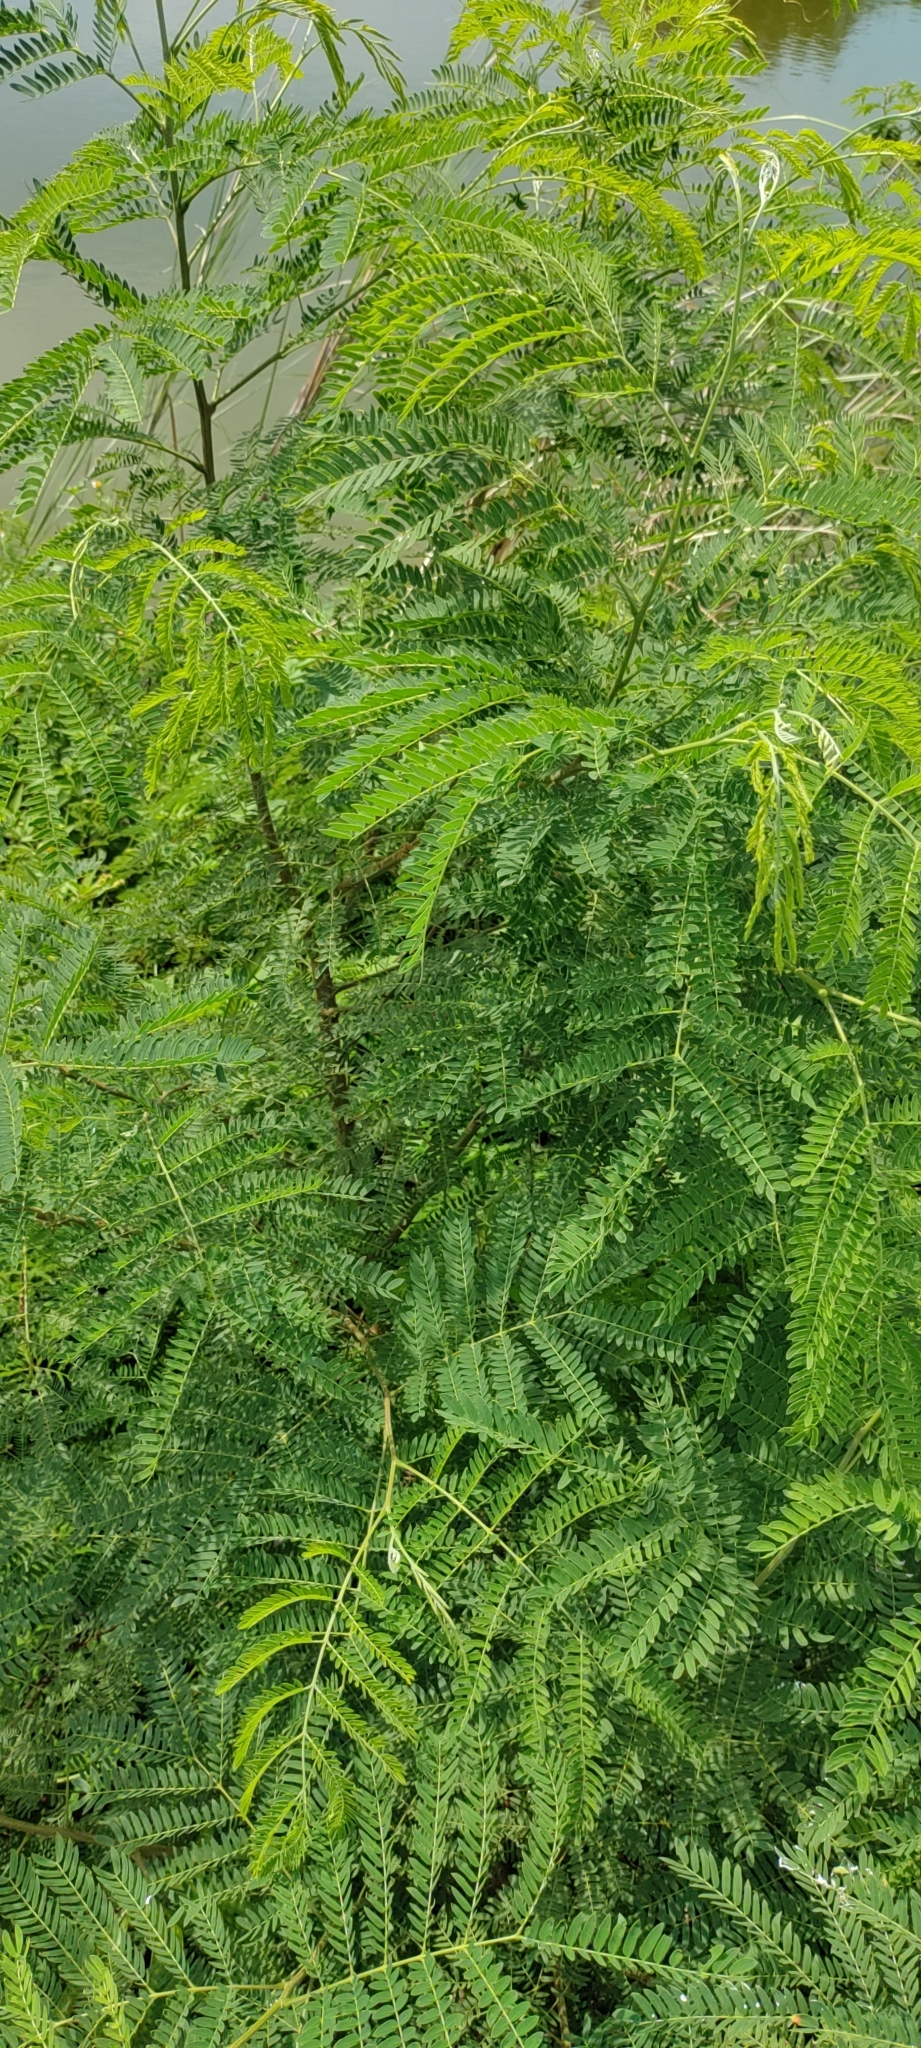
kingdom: Plantae
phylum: Tracheophyta
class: Magnoliopsida
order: Fabales
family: Fabaceae
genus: Leucaena
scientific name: Leucaena leucocephala
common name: White leadtree
